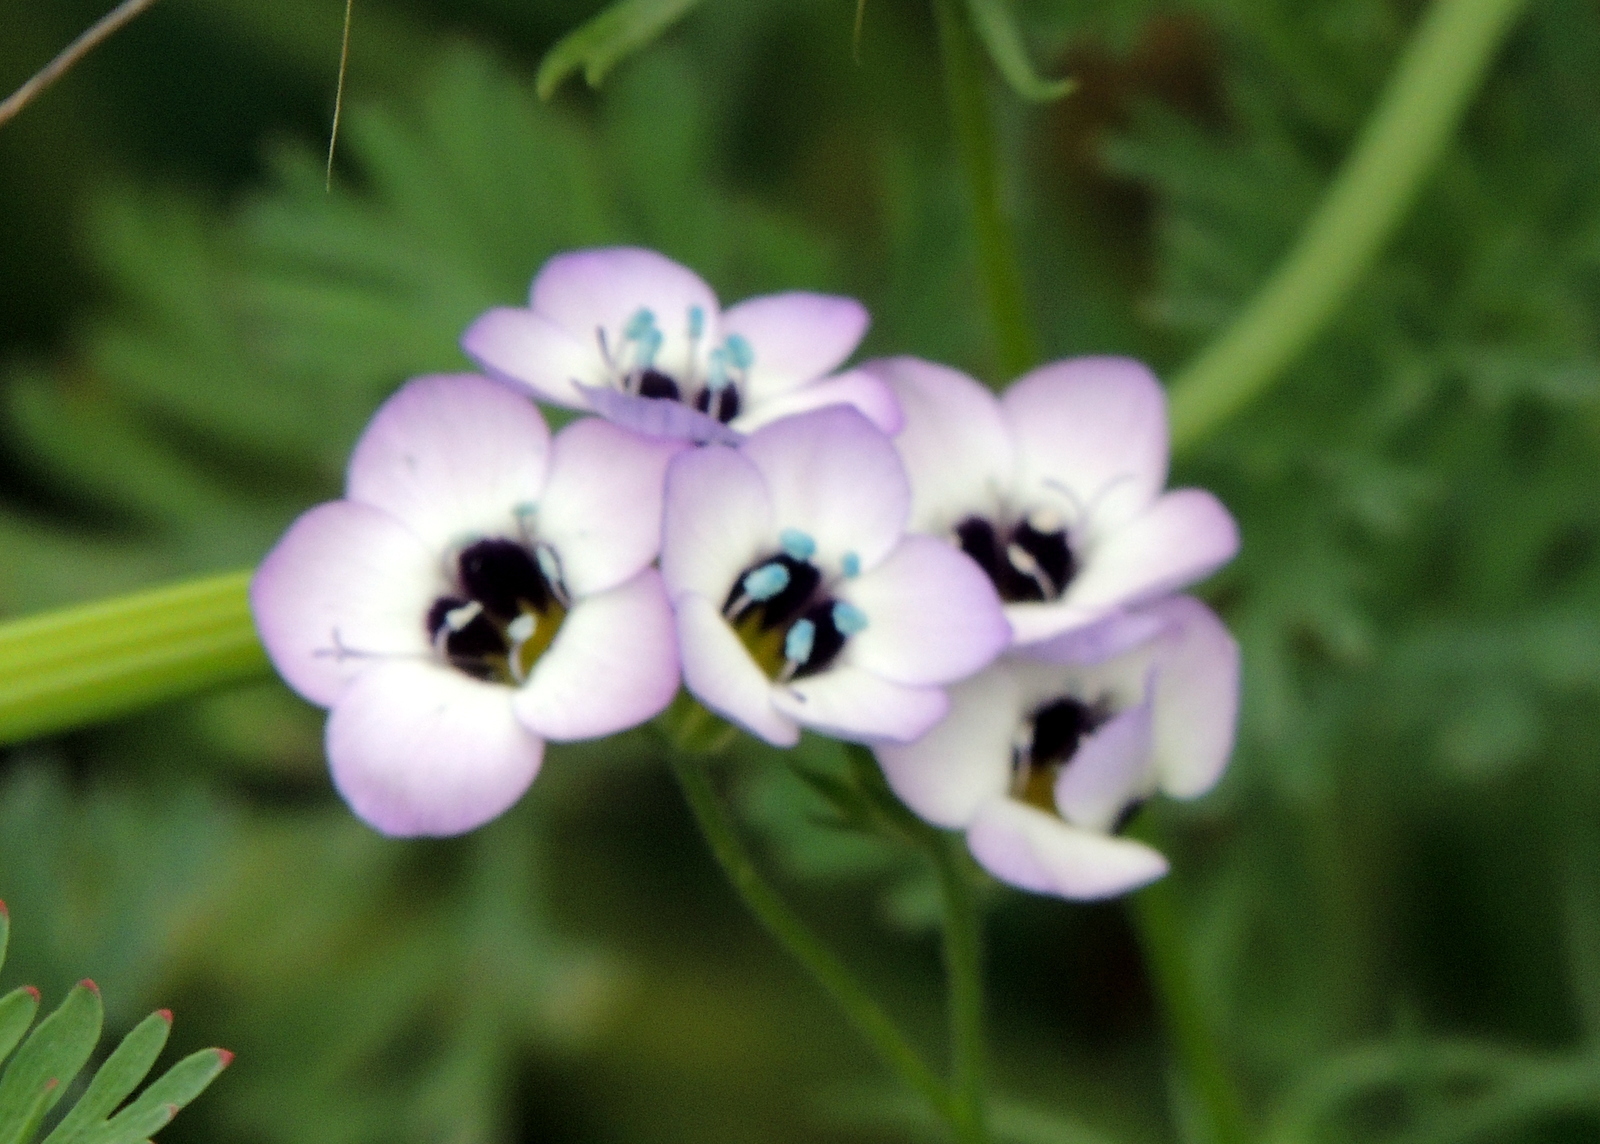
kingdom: Plantae
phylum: Tracheophyta
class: Magnoliopsida
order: Ericales
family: Polemoniaceae
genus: Gilia
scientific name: Gilia tricolor
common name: Bird's-eyes
